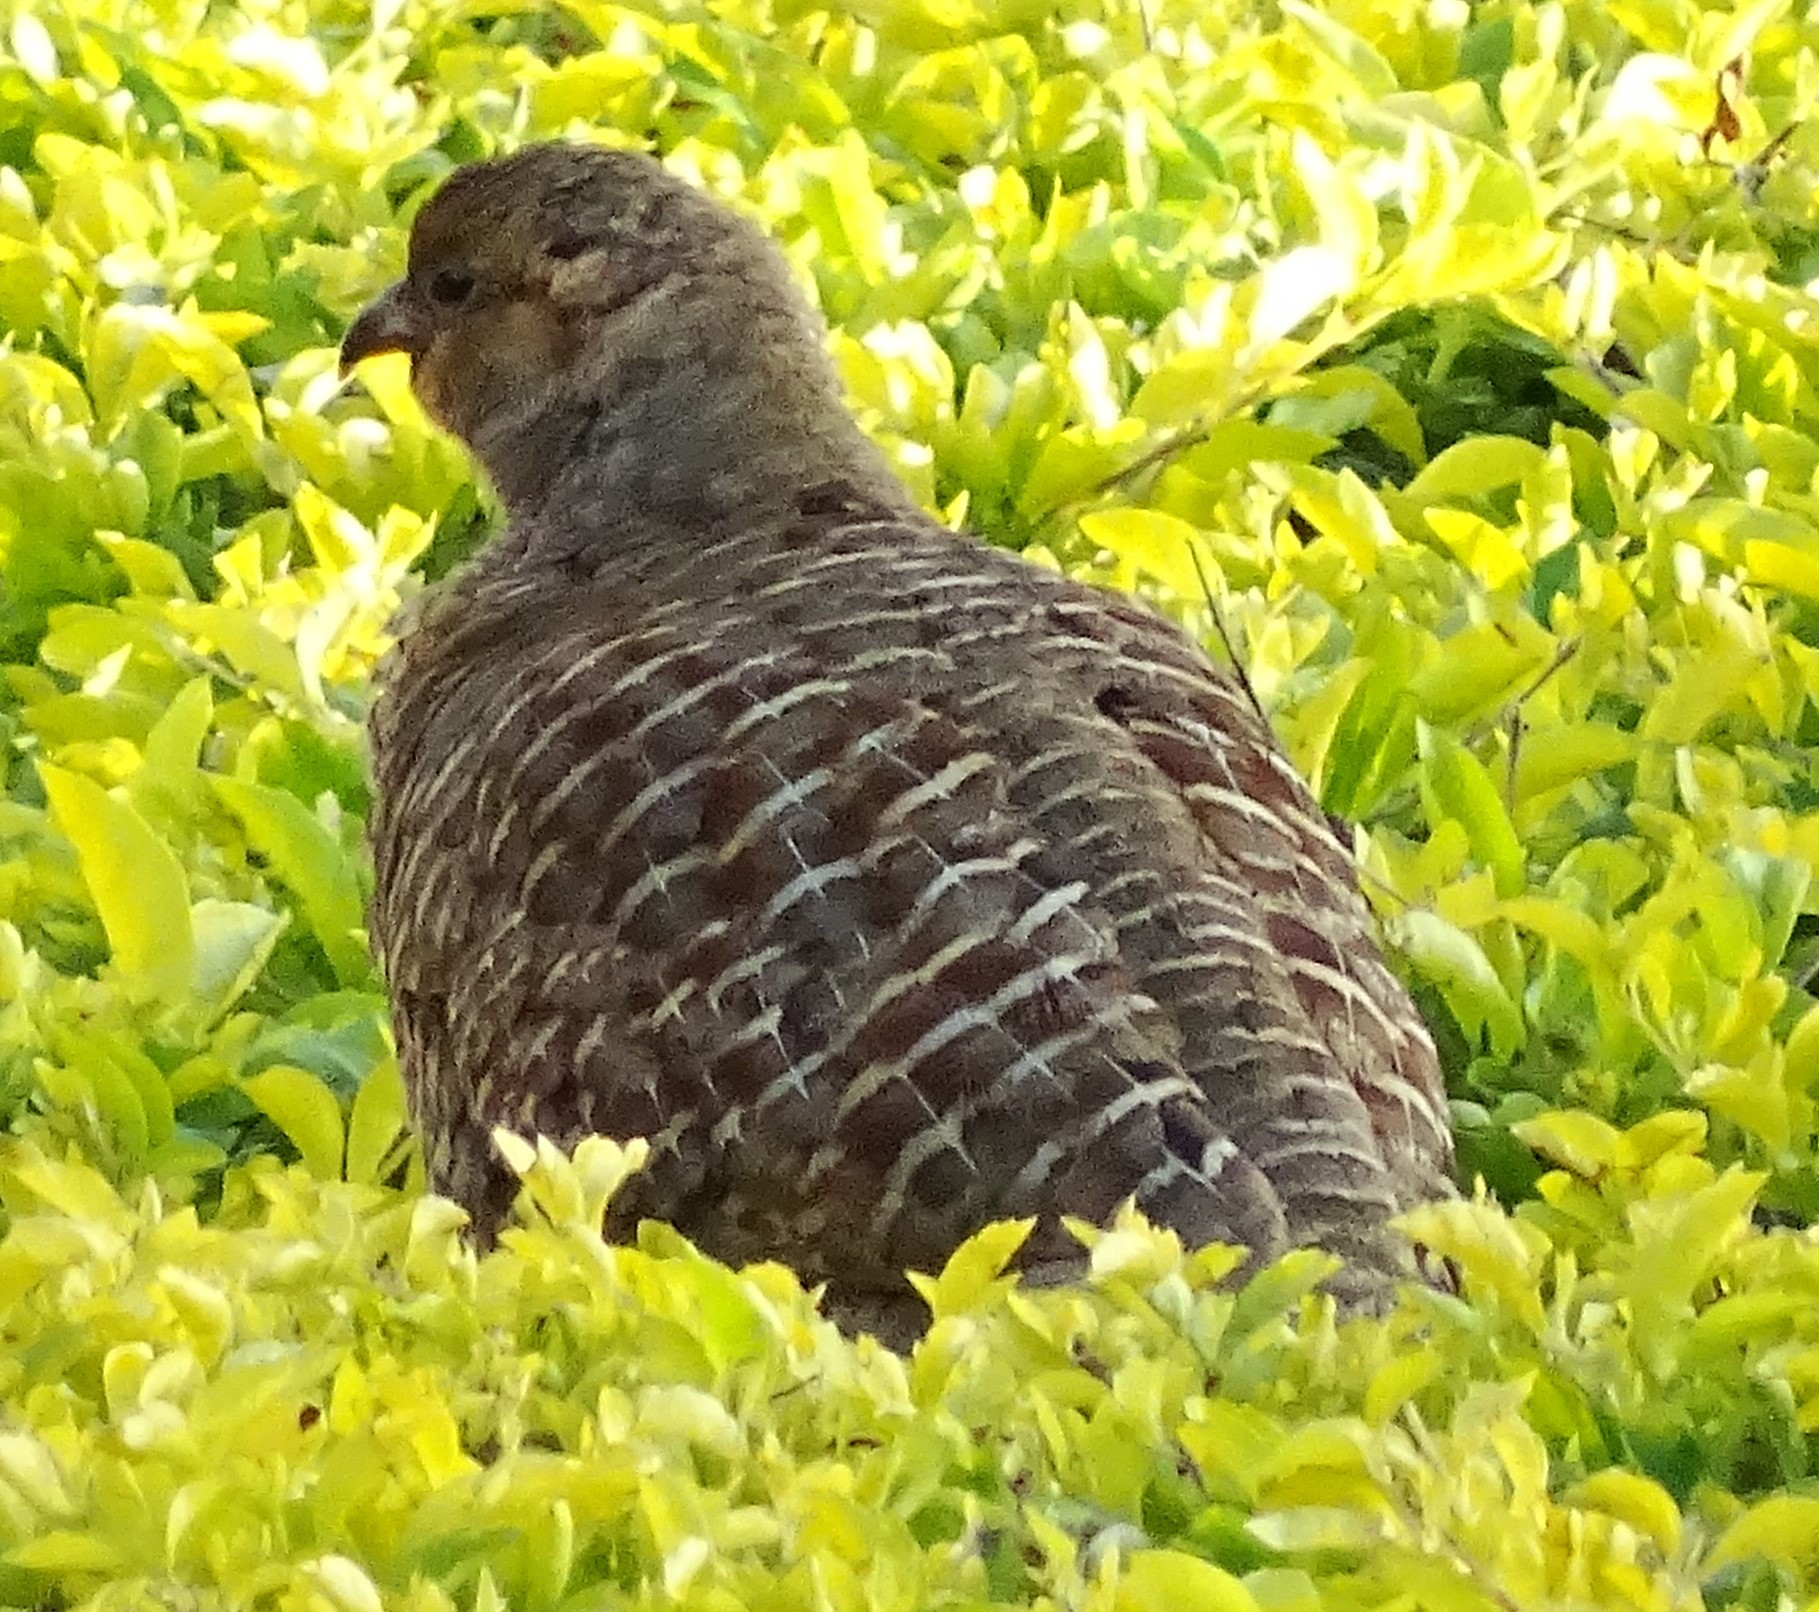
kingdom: Animalia
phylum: Chordata
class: Aves
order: Galliformes
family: Phasianidae
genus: Ortygornis
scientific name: Ortygornis pondicerianus
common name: Grey francolin
